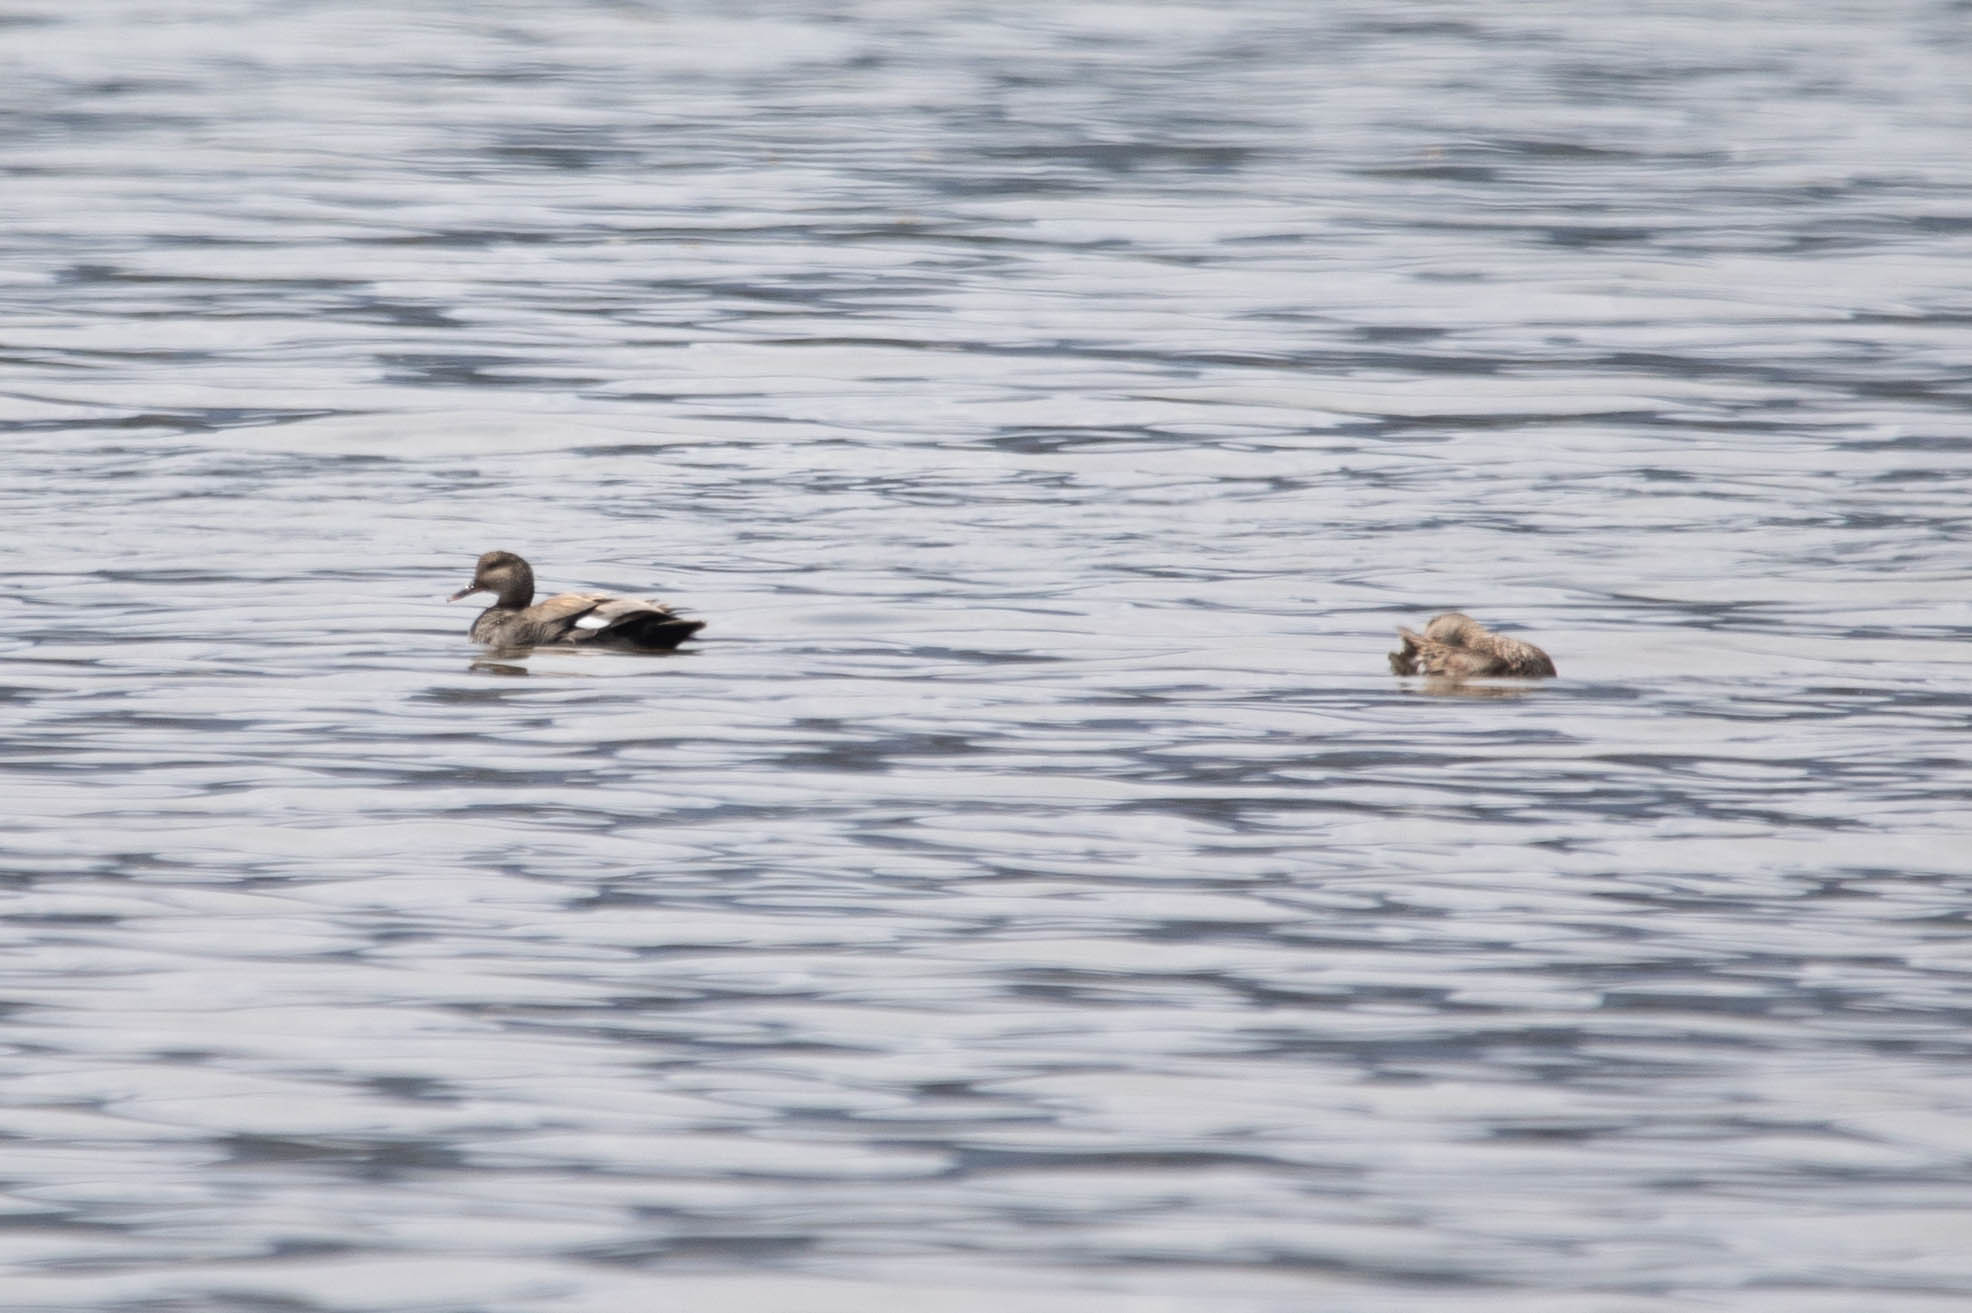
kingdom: Animalia
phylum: Chordata
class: Aves
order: Anseriformes
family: Anatidae
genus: Mareca
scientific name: Mareca strepera
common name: Gadwall
